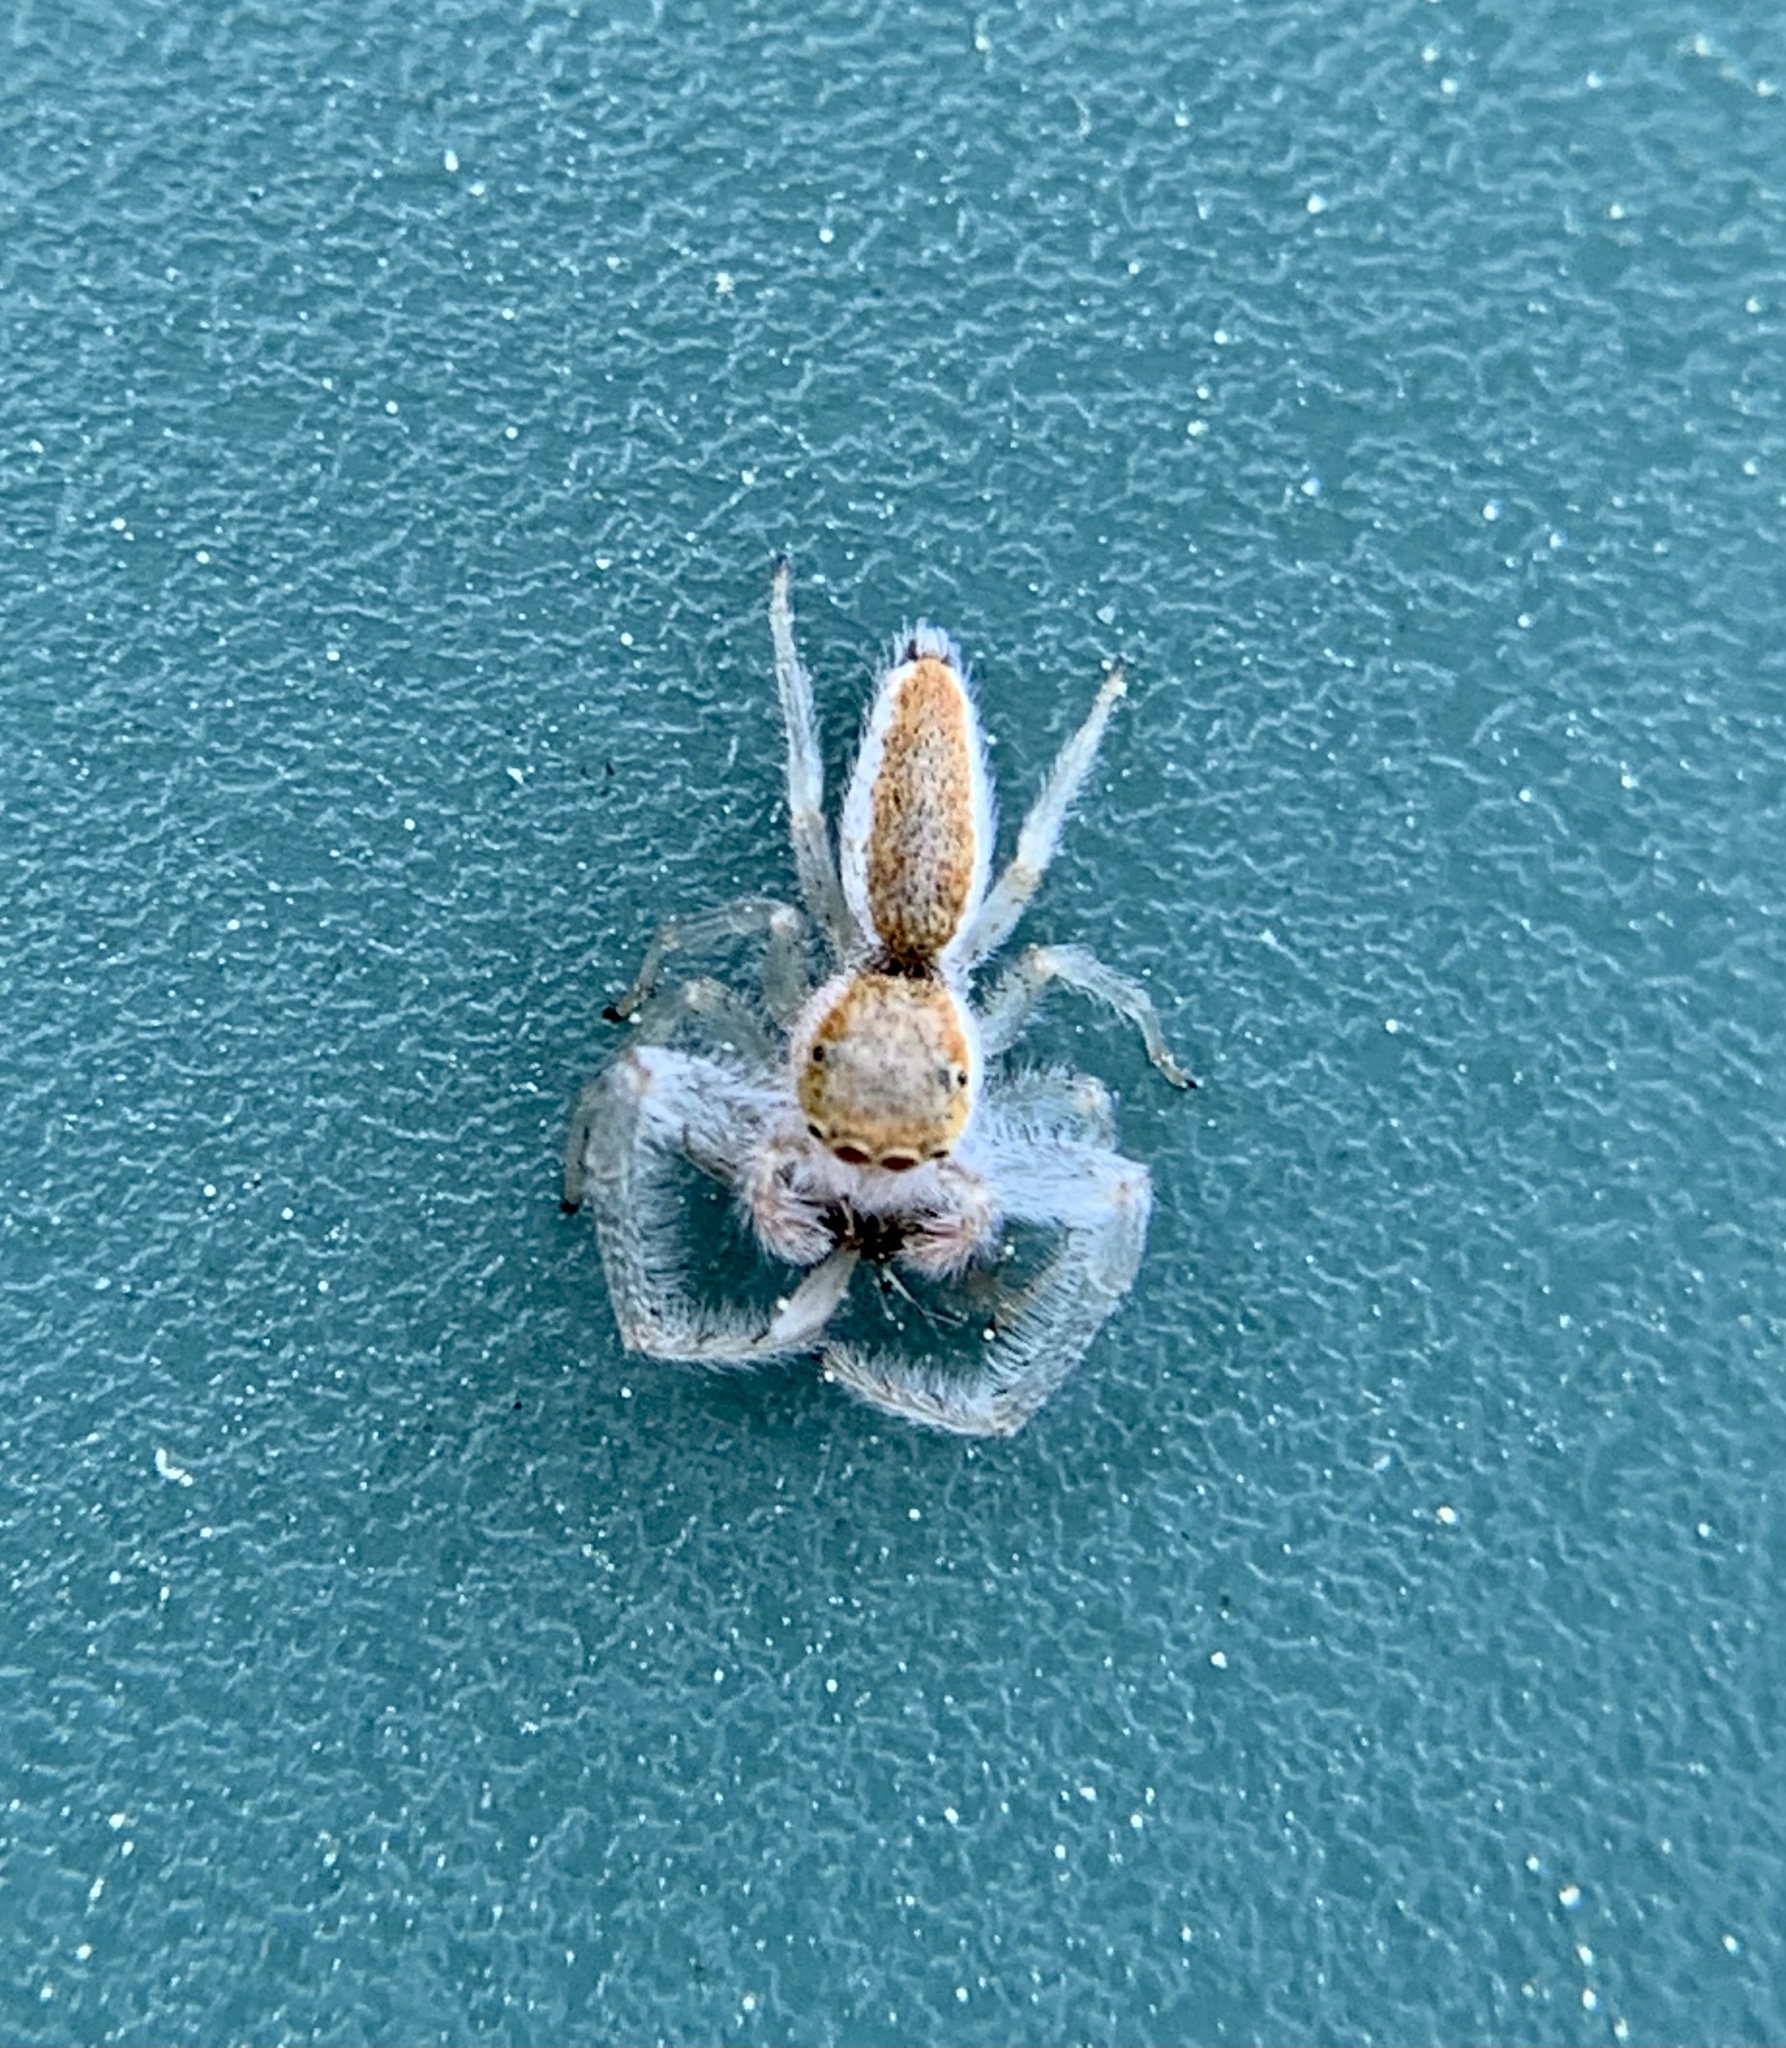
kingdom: Animalia
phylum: Arthropoda
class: Arachnida
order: Araneae
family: Salticidae
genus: Hentzia
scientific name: Hentzia mitrata
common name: White-jawed jumping spider
